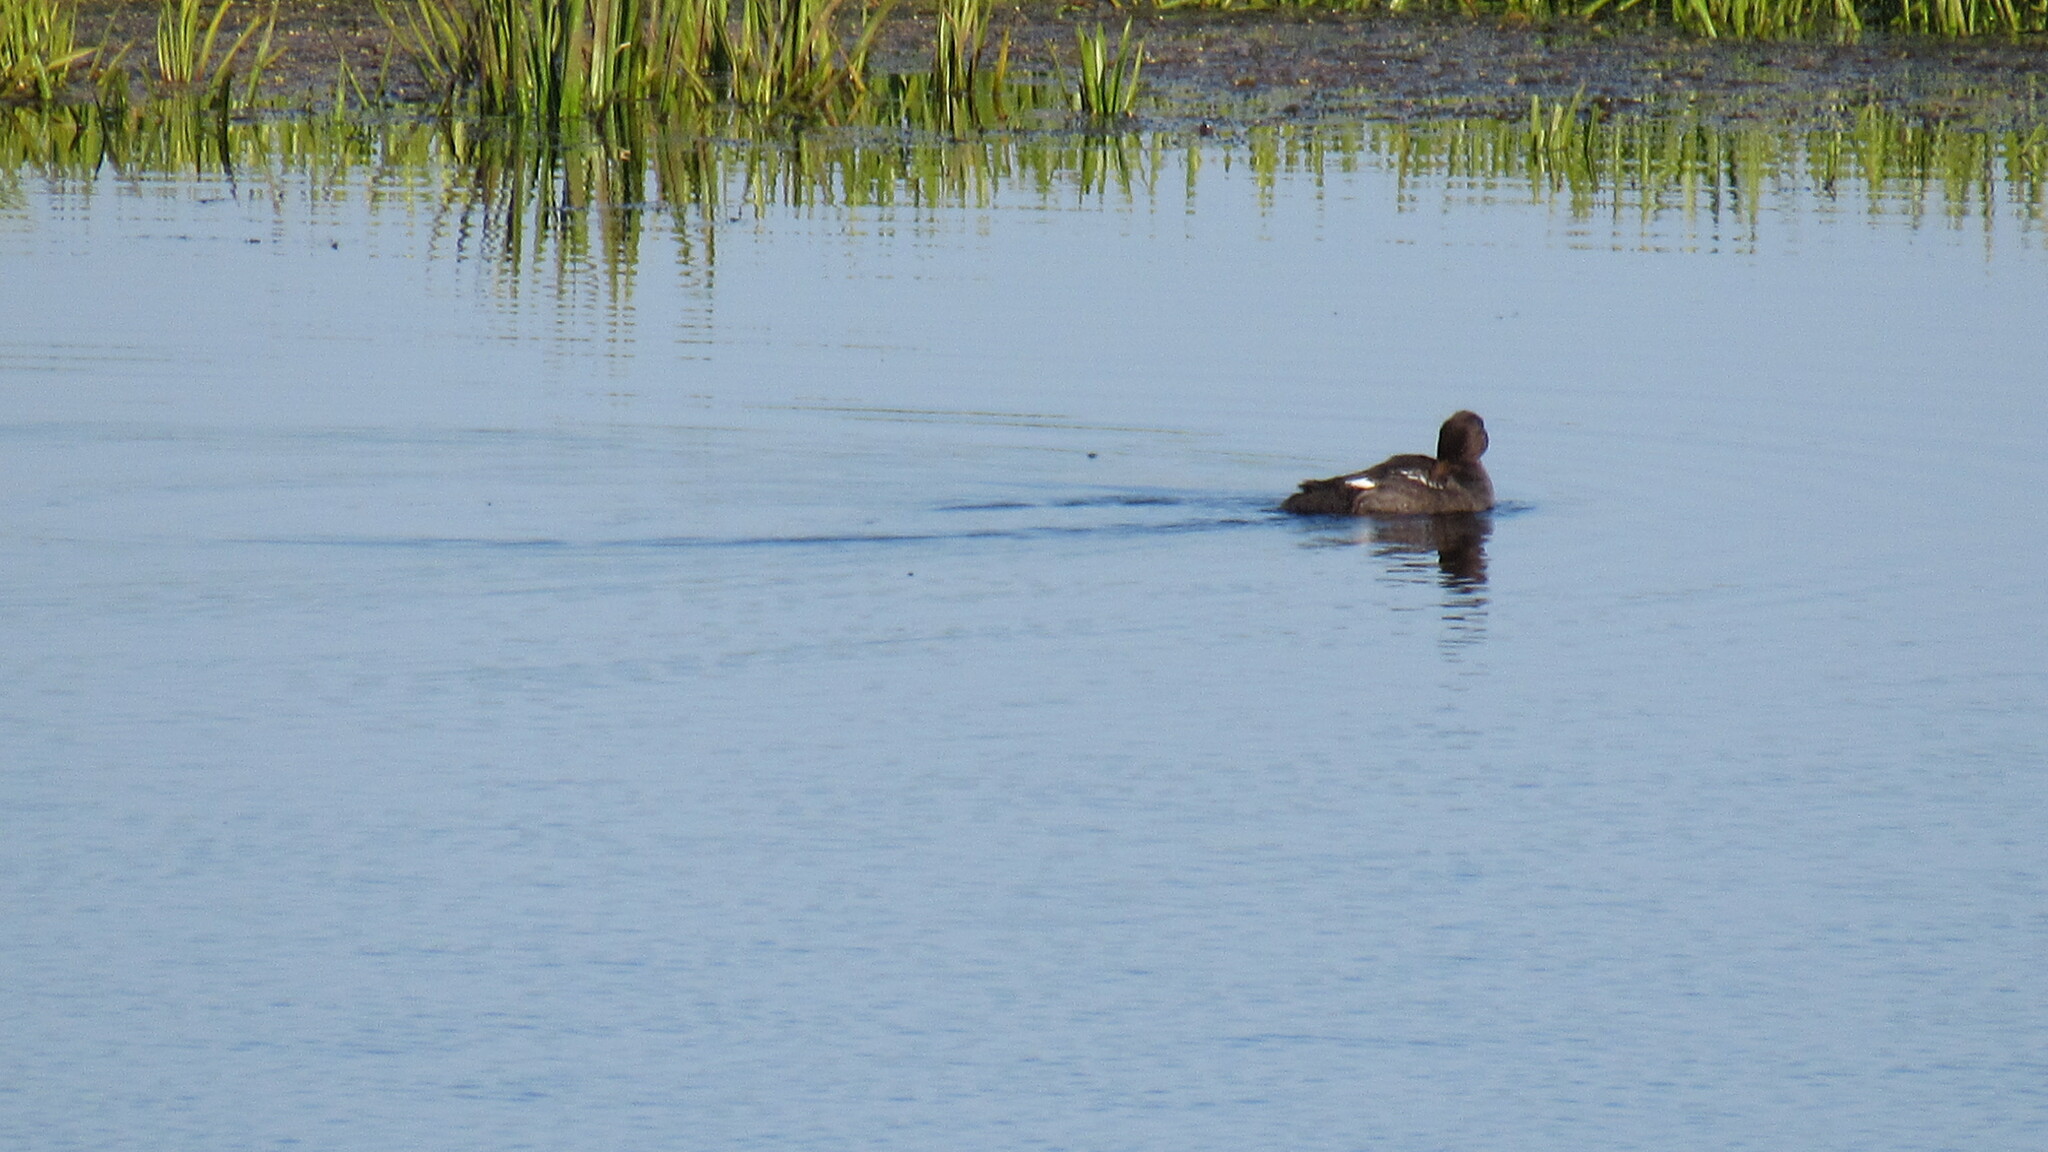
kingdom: Animalia
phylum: Chordata
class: Aves
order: Anseriformes
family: Anatidae
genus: Bucephala
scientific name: Bucephala clangula
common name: Common goldeneye
